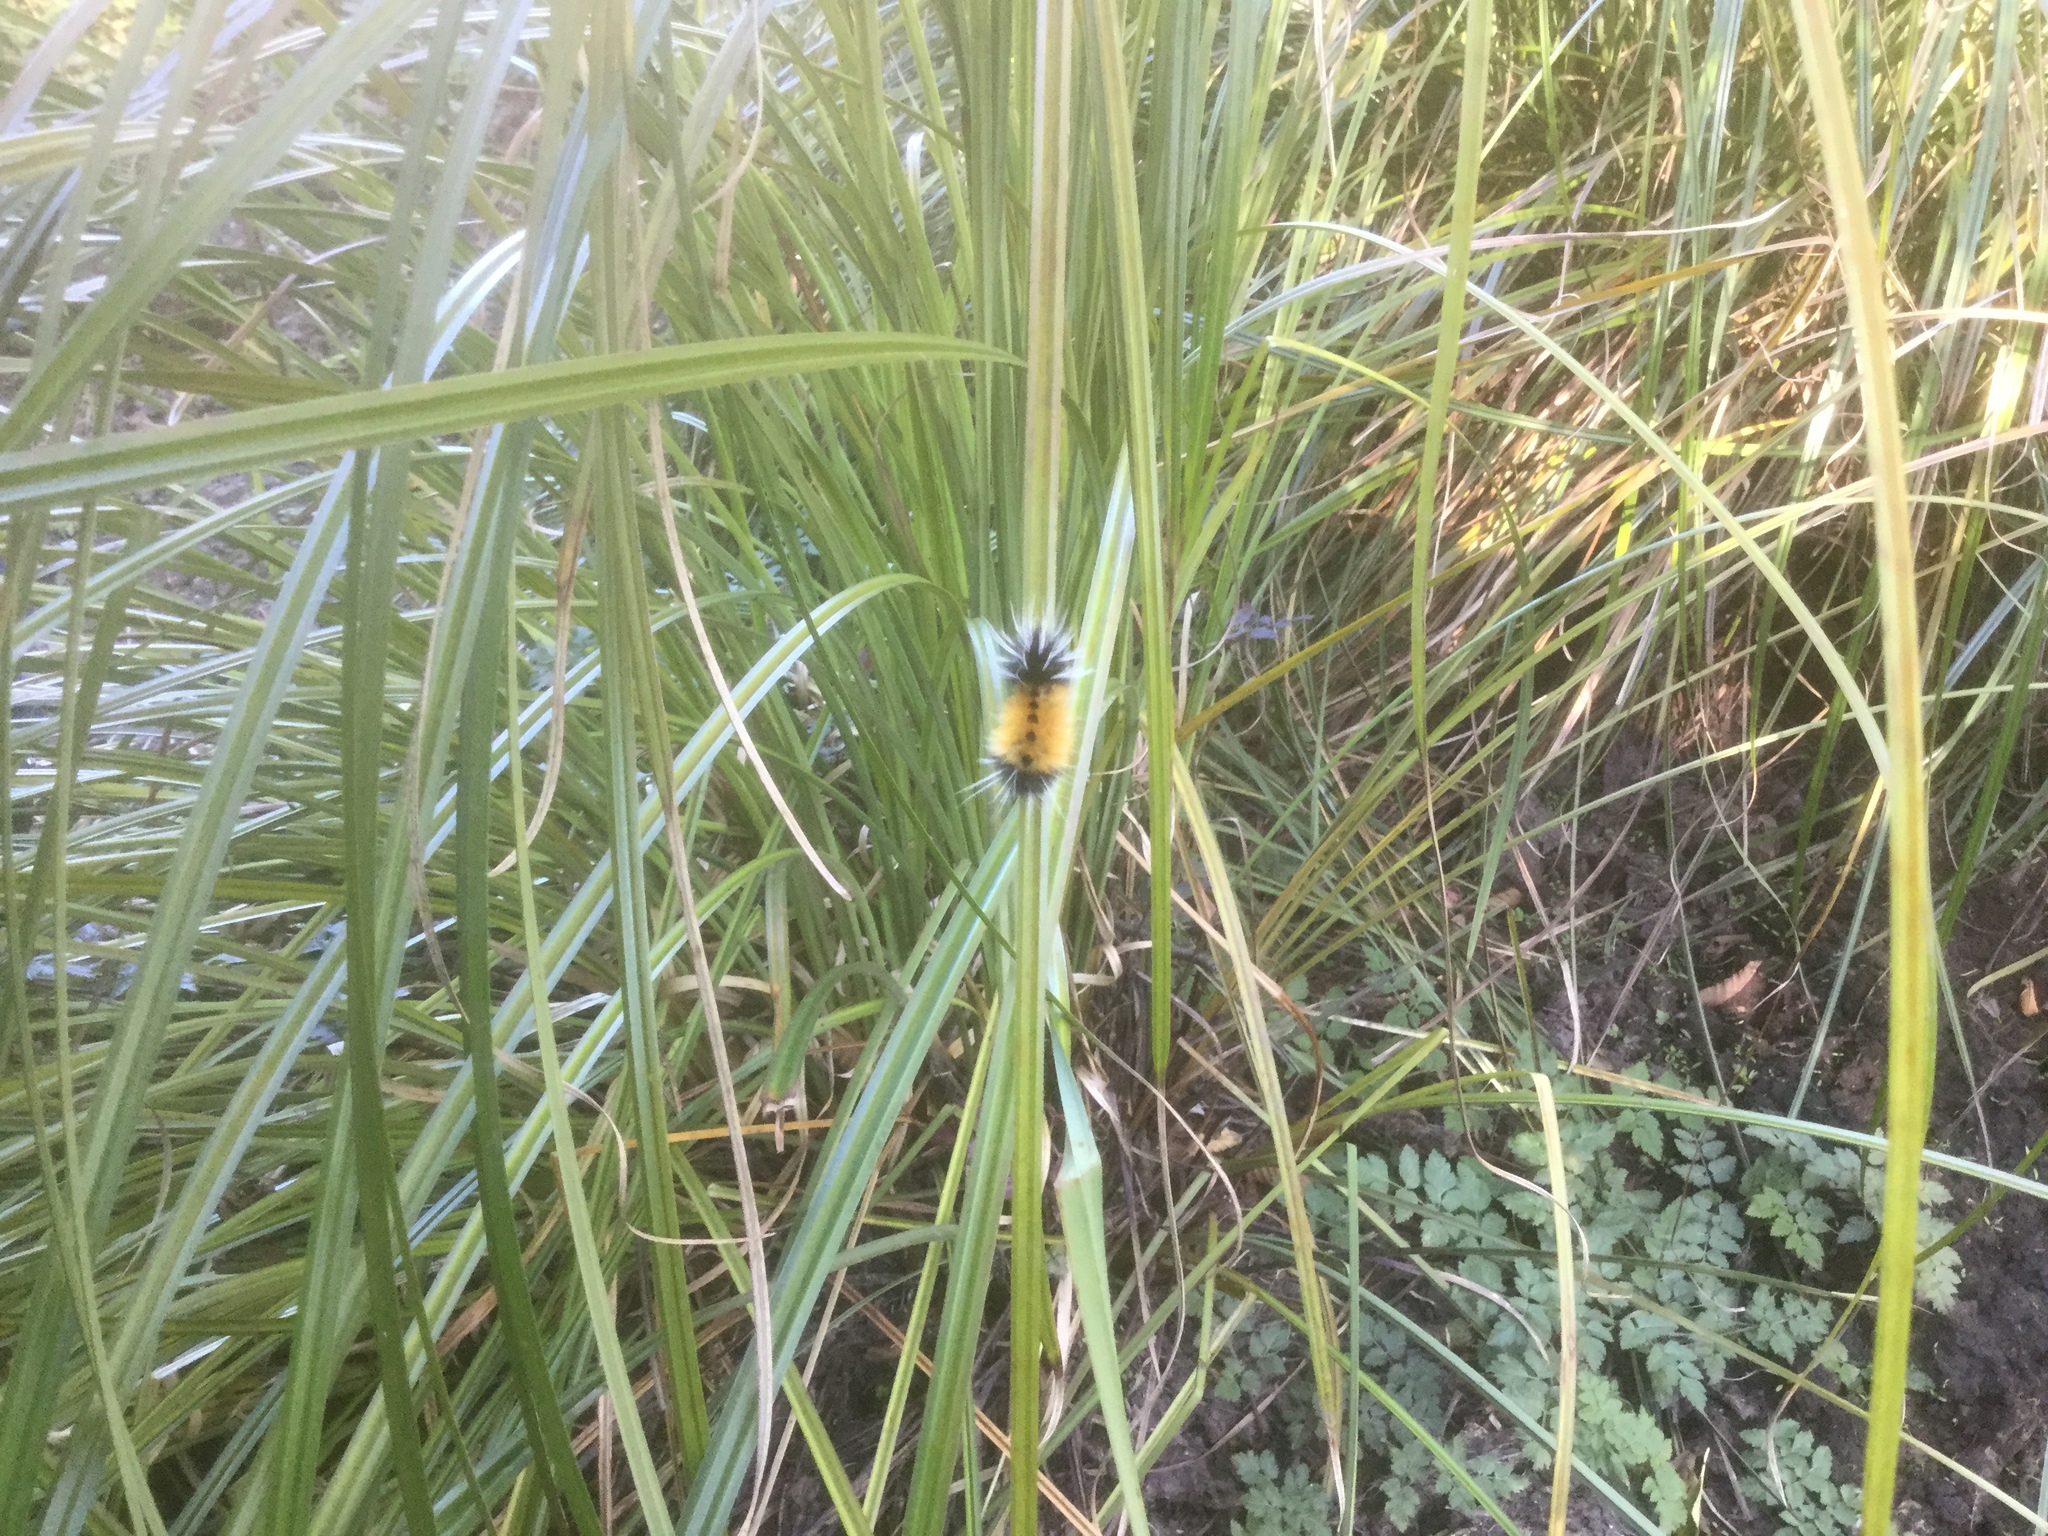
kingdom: Animalia
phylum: Arthropoda
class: Insecta
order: Lepidoptera
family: Erebidae
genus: Lophocampa
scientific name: Lophocampa maculata
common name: Spotted tussock moth
